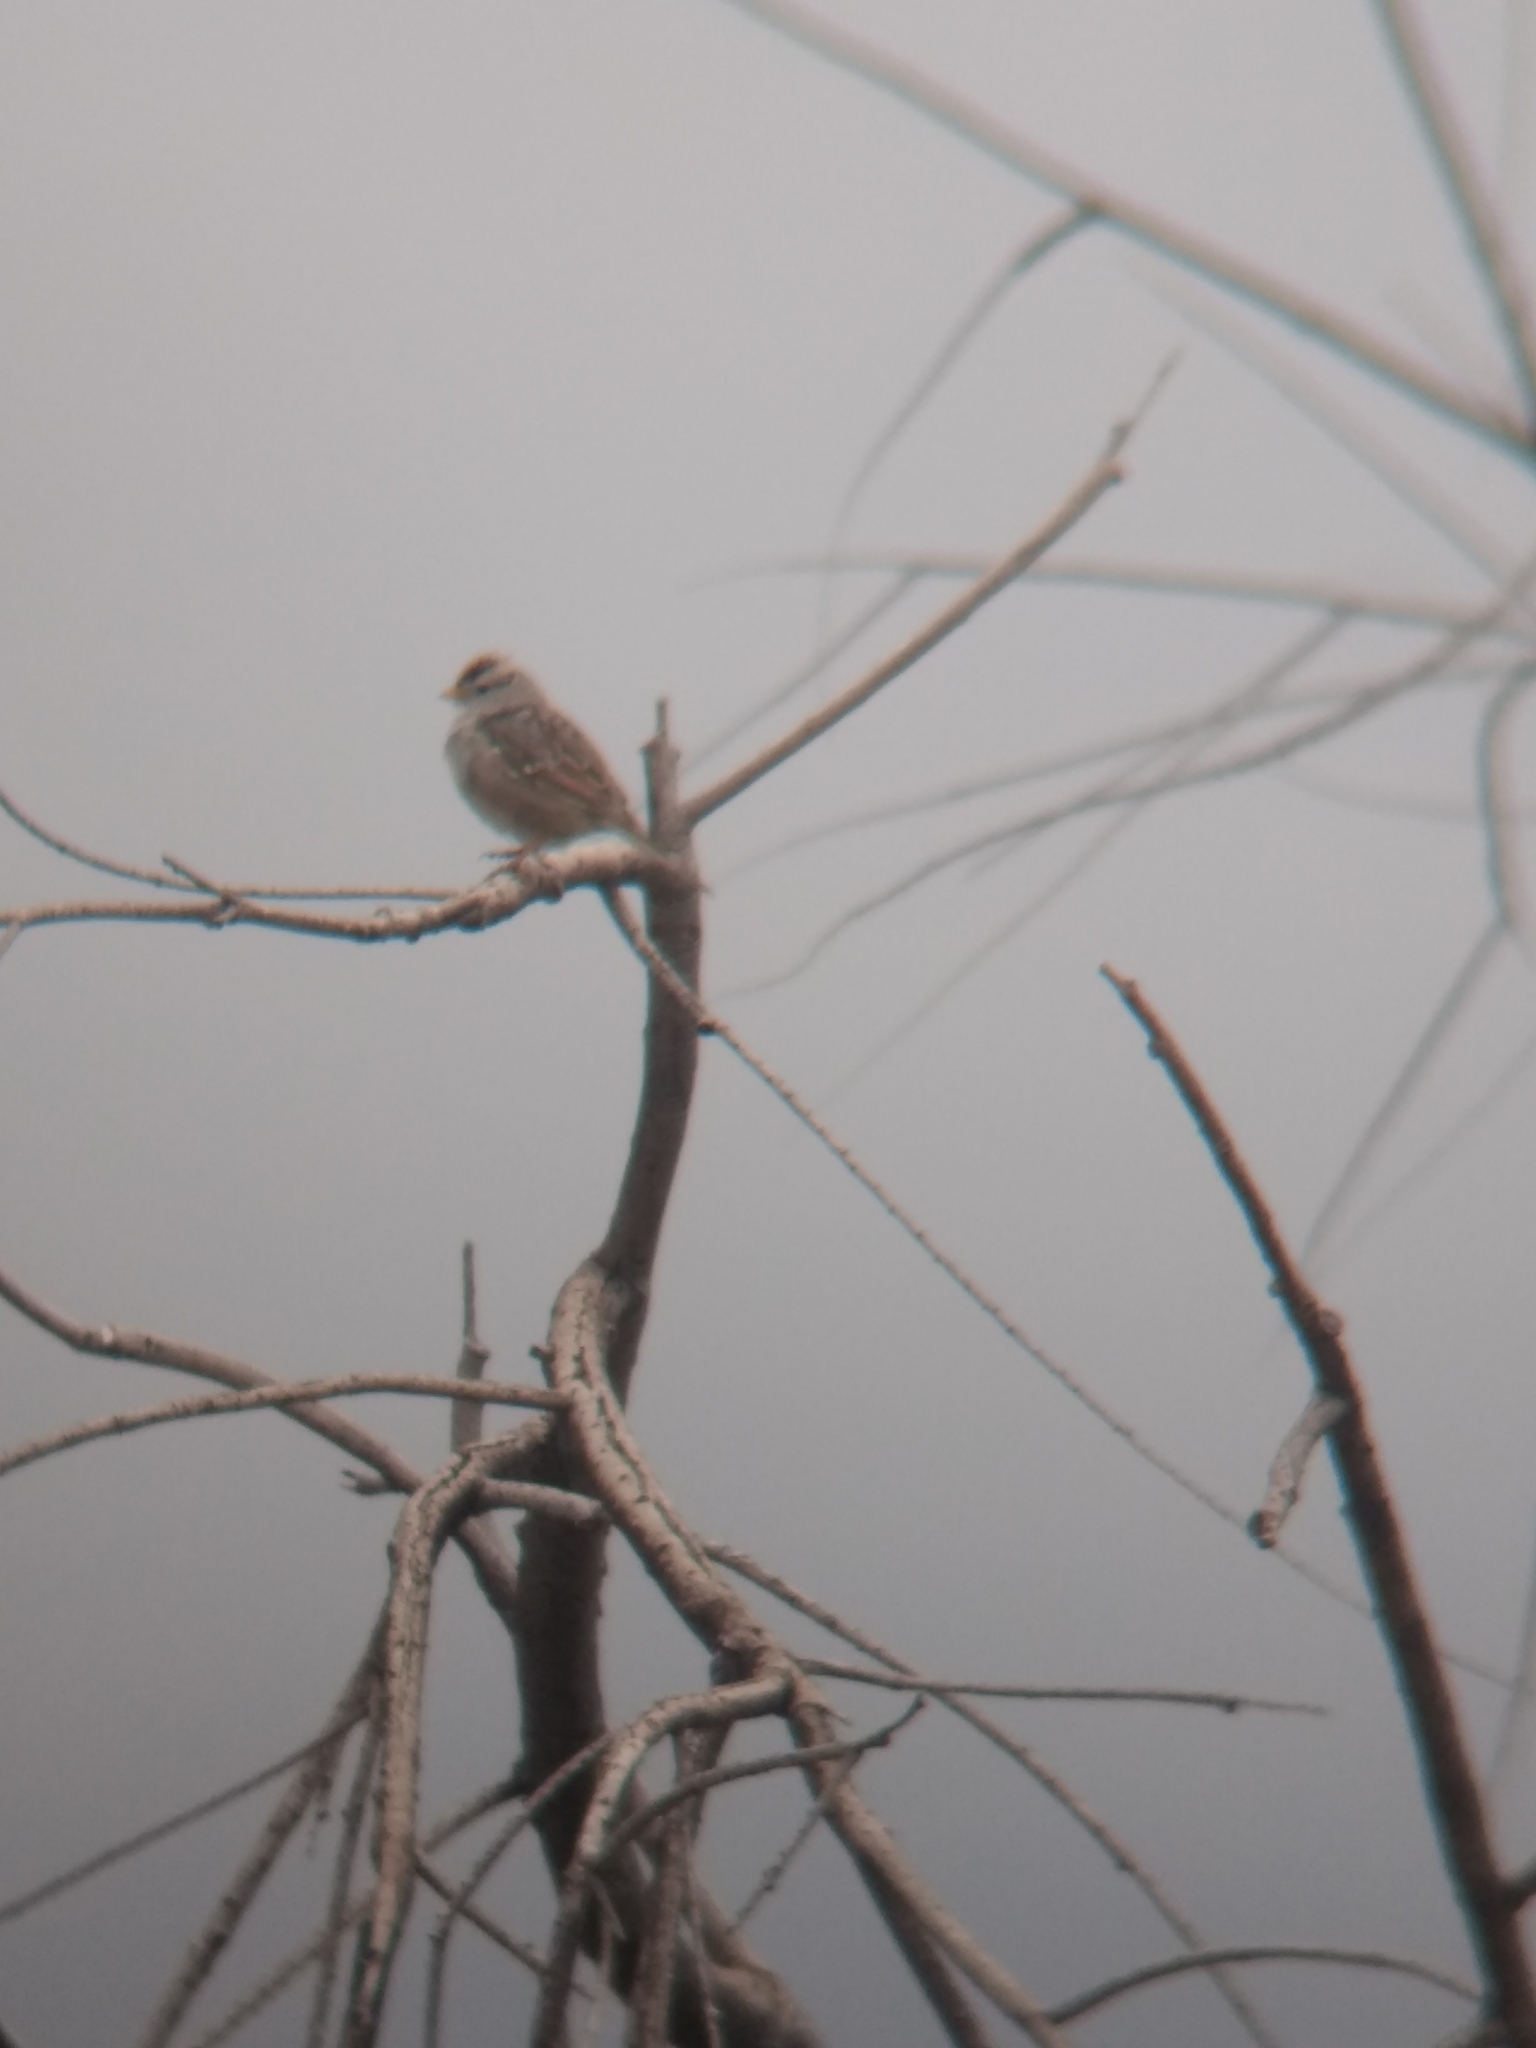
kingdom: Animalia
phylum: Chordata
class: Aves
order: Passeriformes
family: Passerellidae
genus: Zonotrichia
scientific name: Zonotrichia leucophrys
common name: White-crowned sparrow
